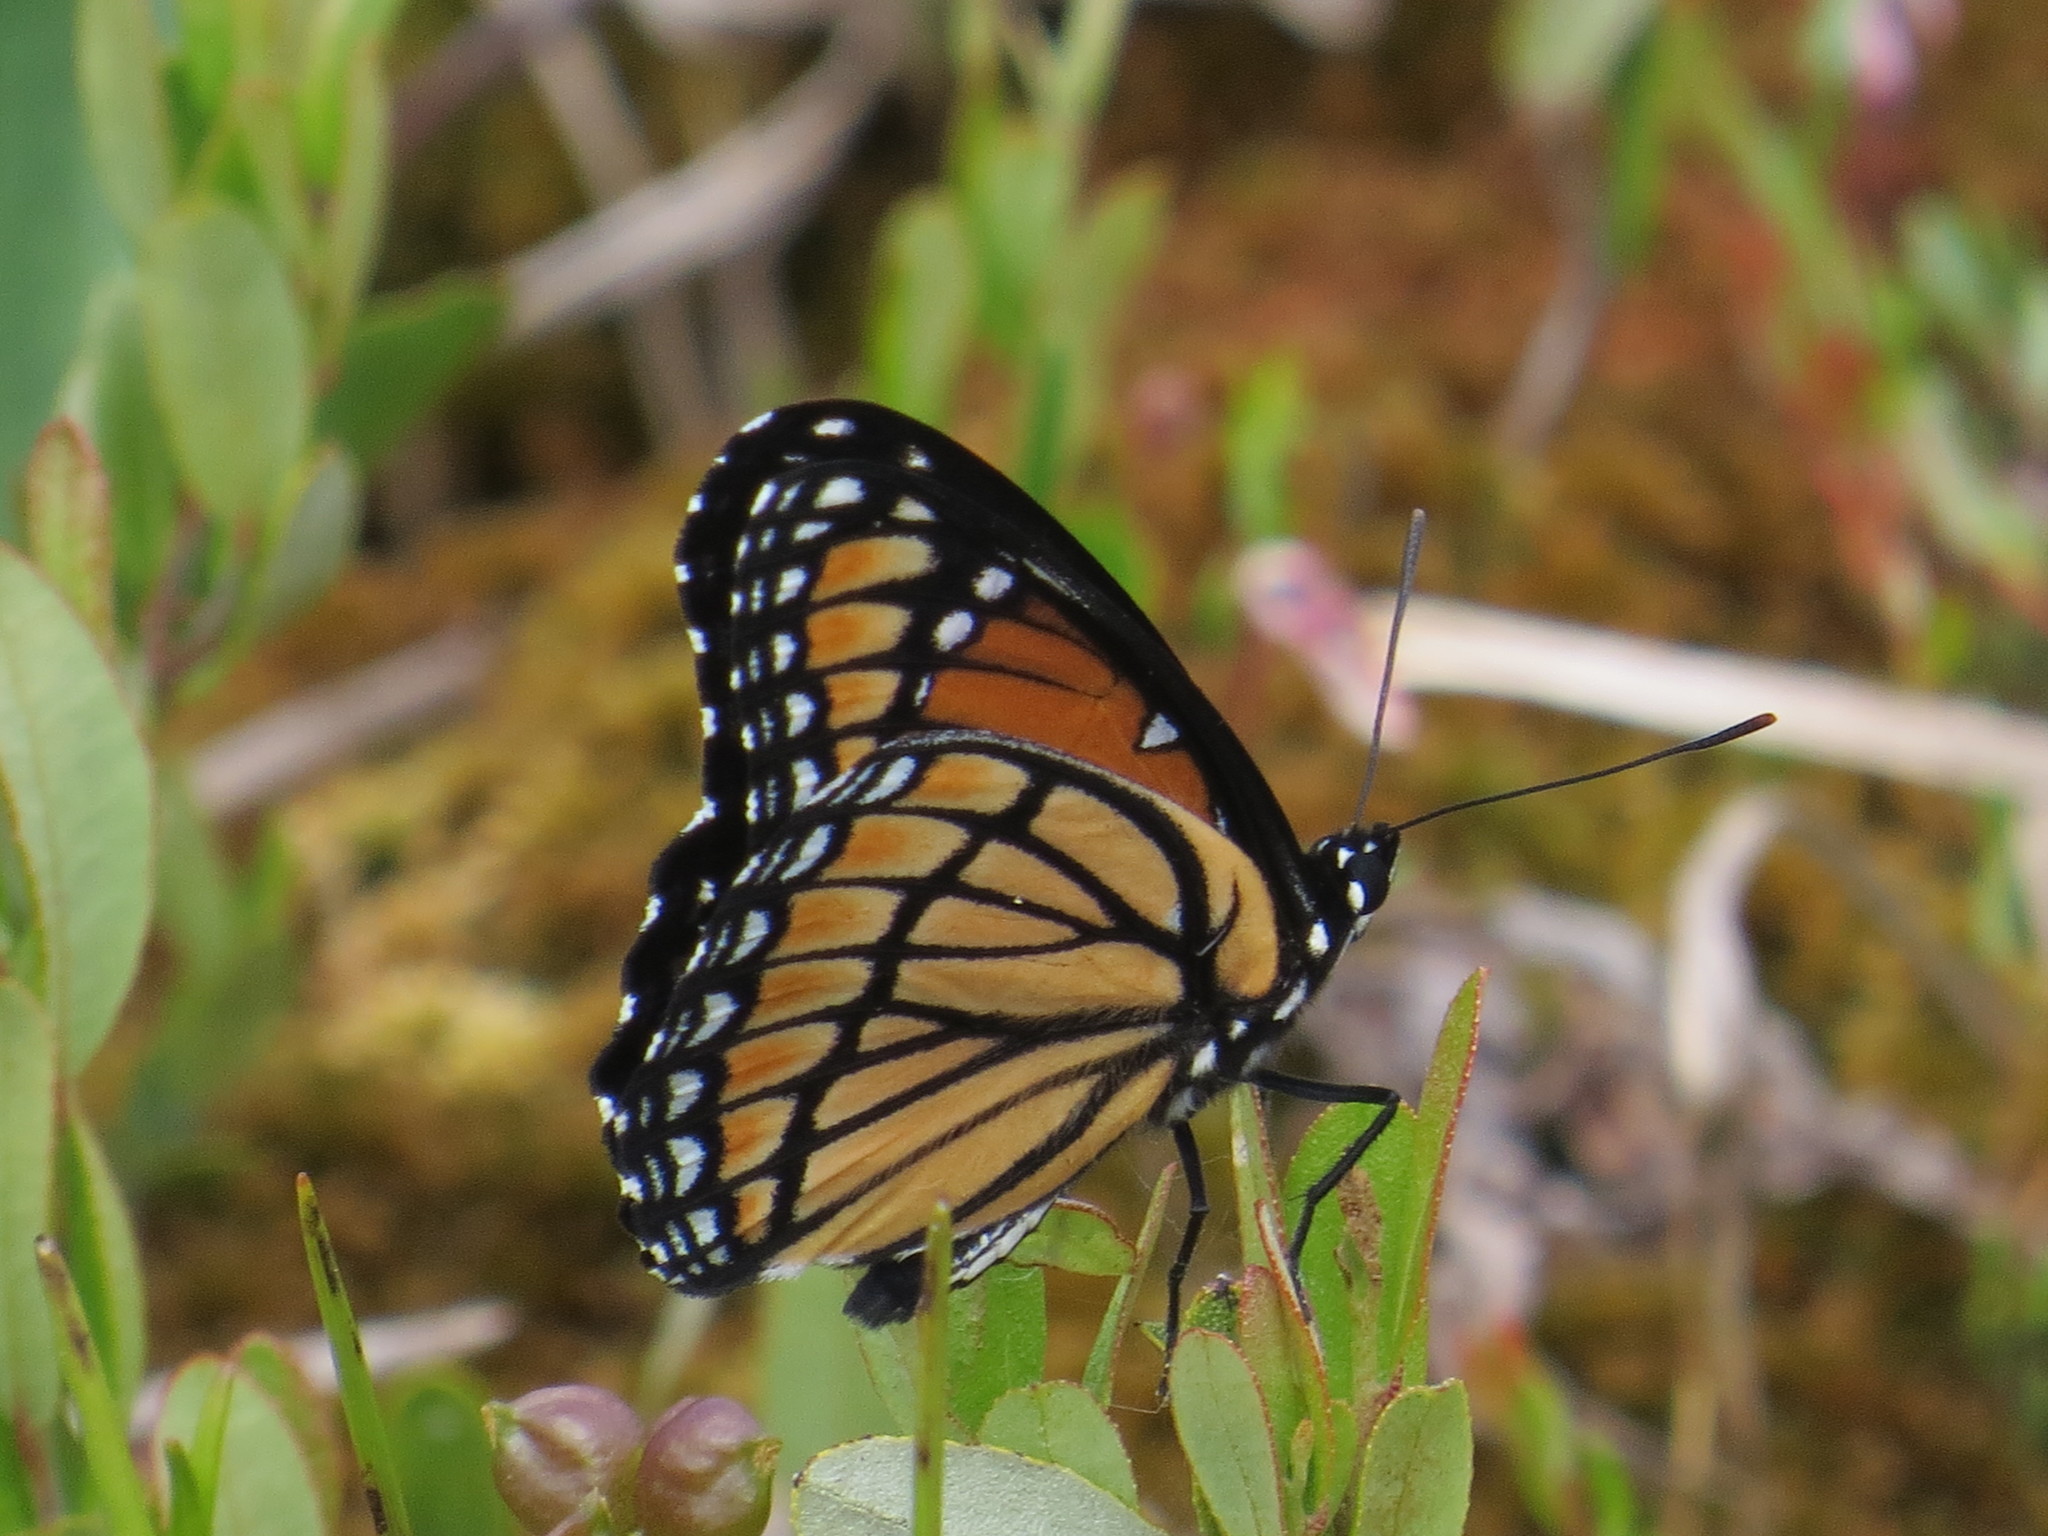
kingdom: Animalia
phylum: Arthropoda
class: Insecta
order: Lepidoptera
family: Nymphalidae
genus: Limenitis
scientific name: Limenitis archippus
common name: Viceroy
